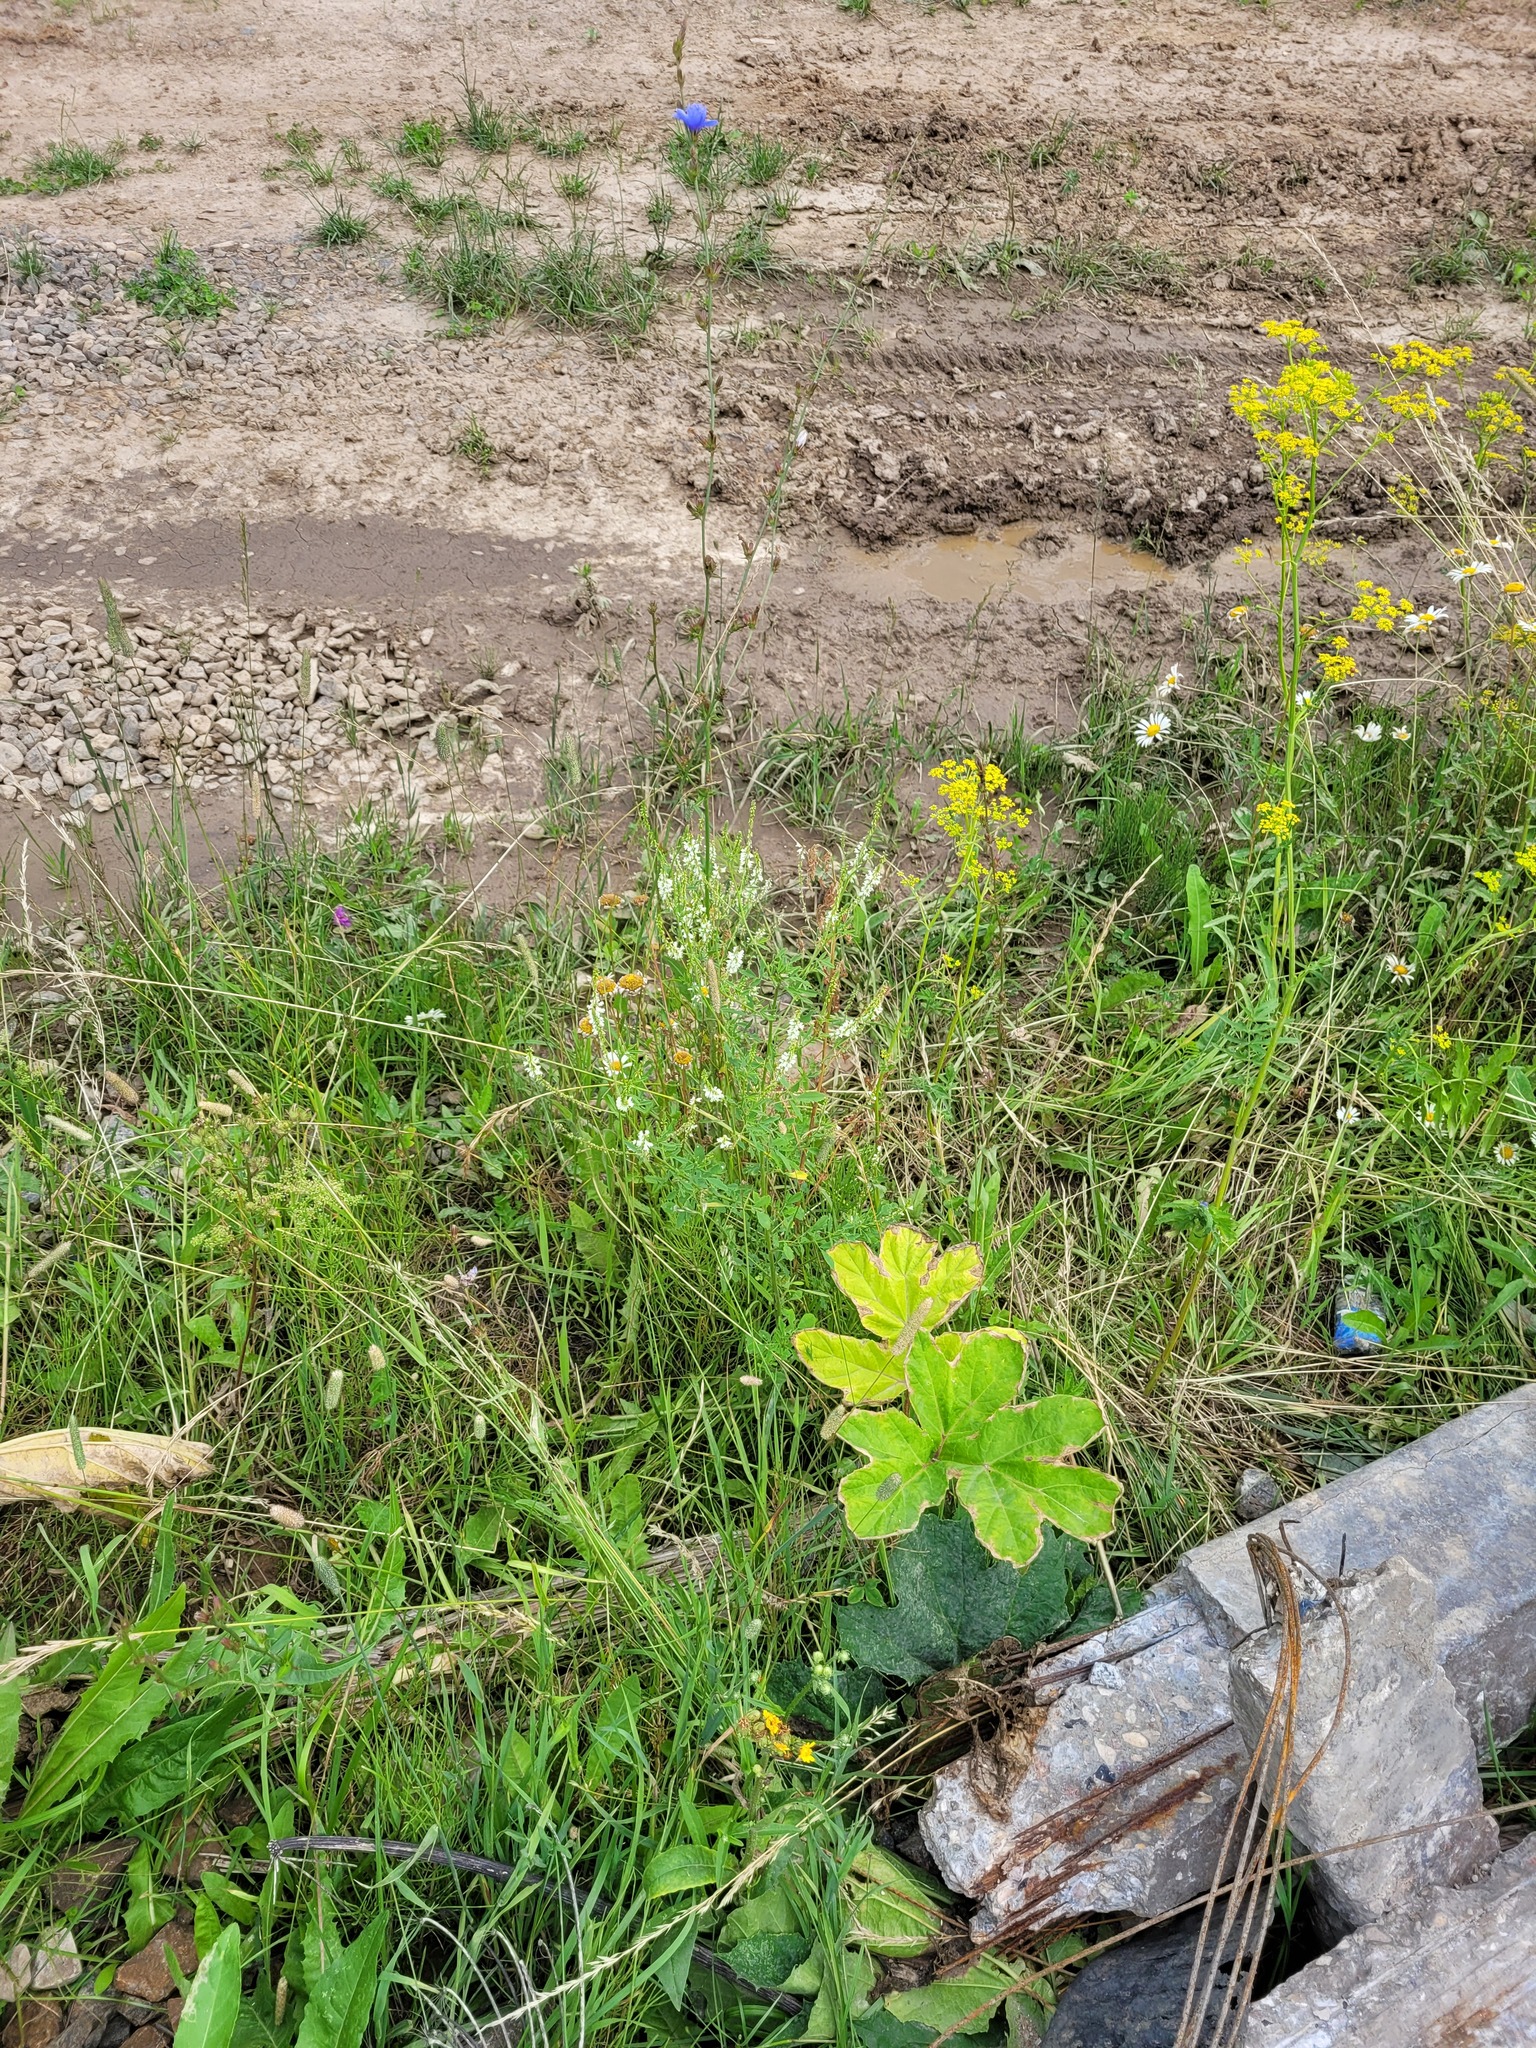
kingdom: Plantae
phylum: Tracheophyta
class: Magnoliopsida
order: Fabales
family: Fabaceae
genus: Melilotus
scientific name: Melilotus albus
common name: White melilot
